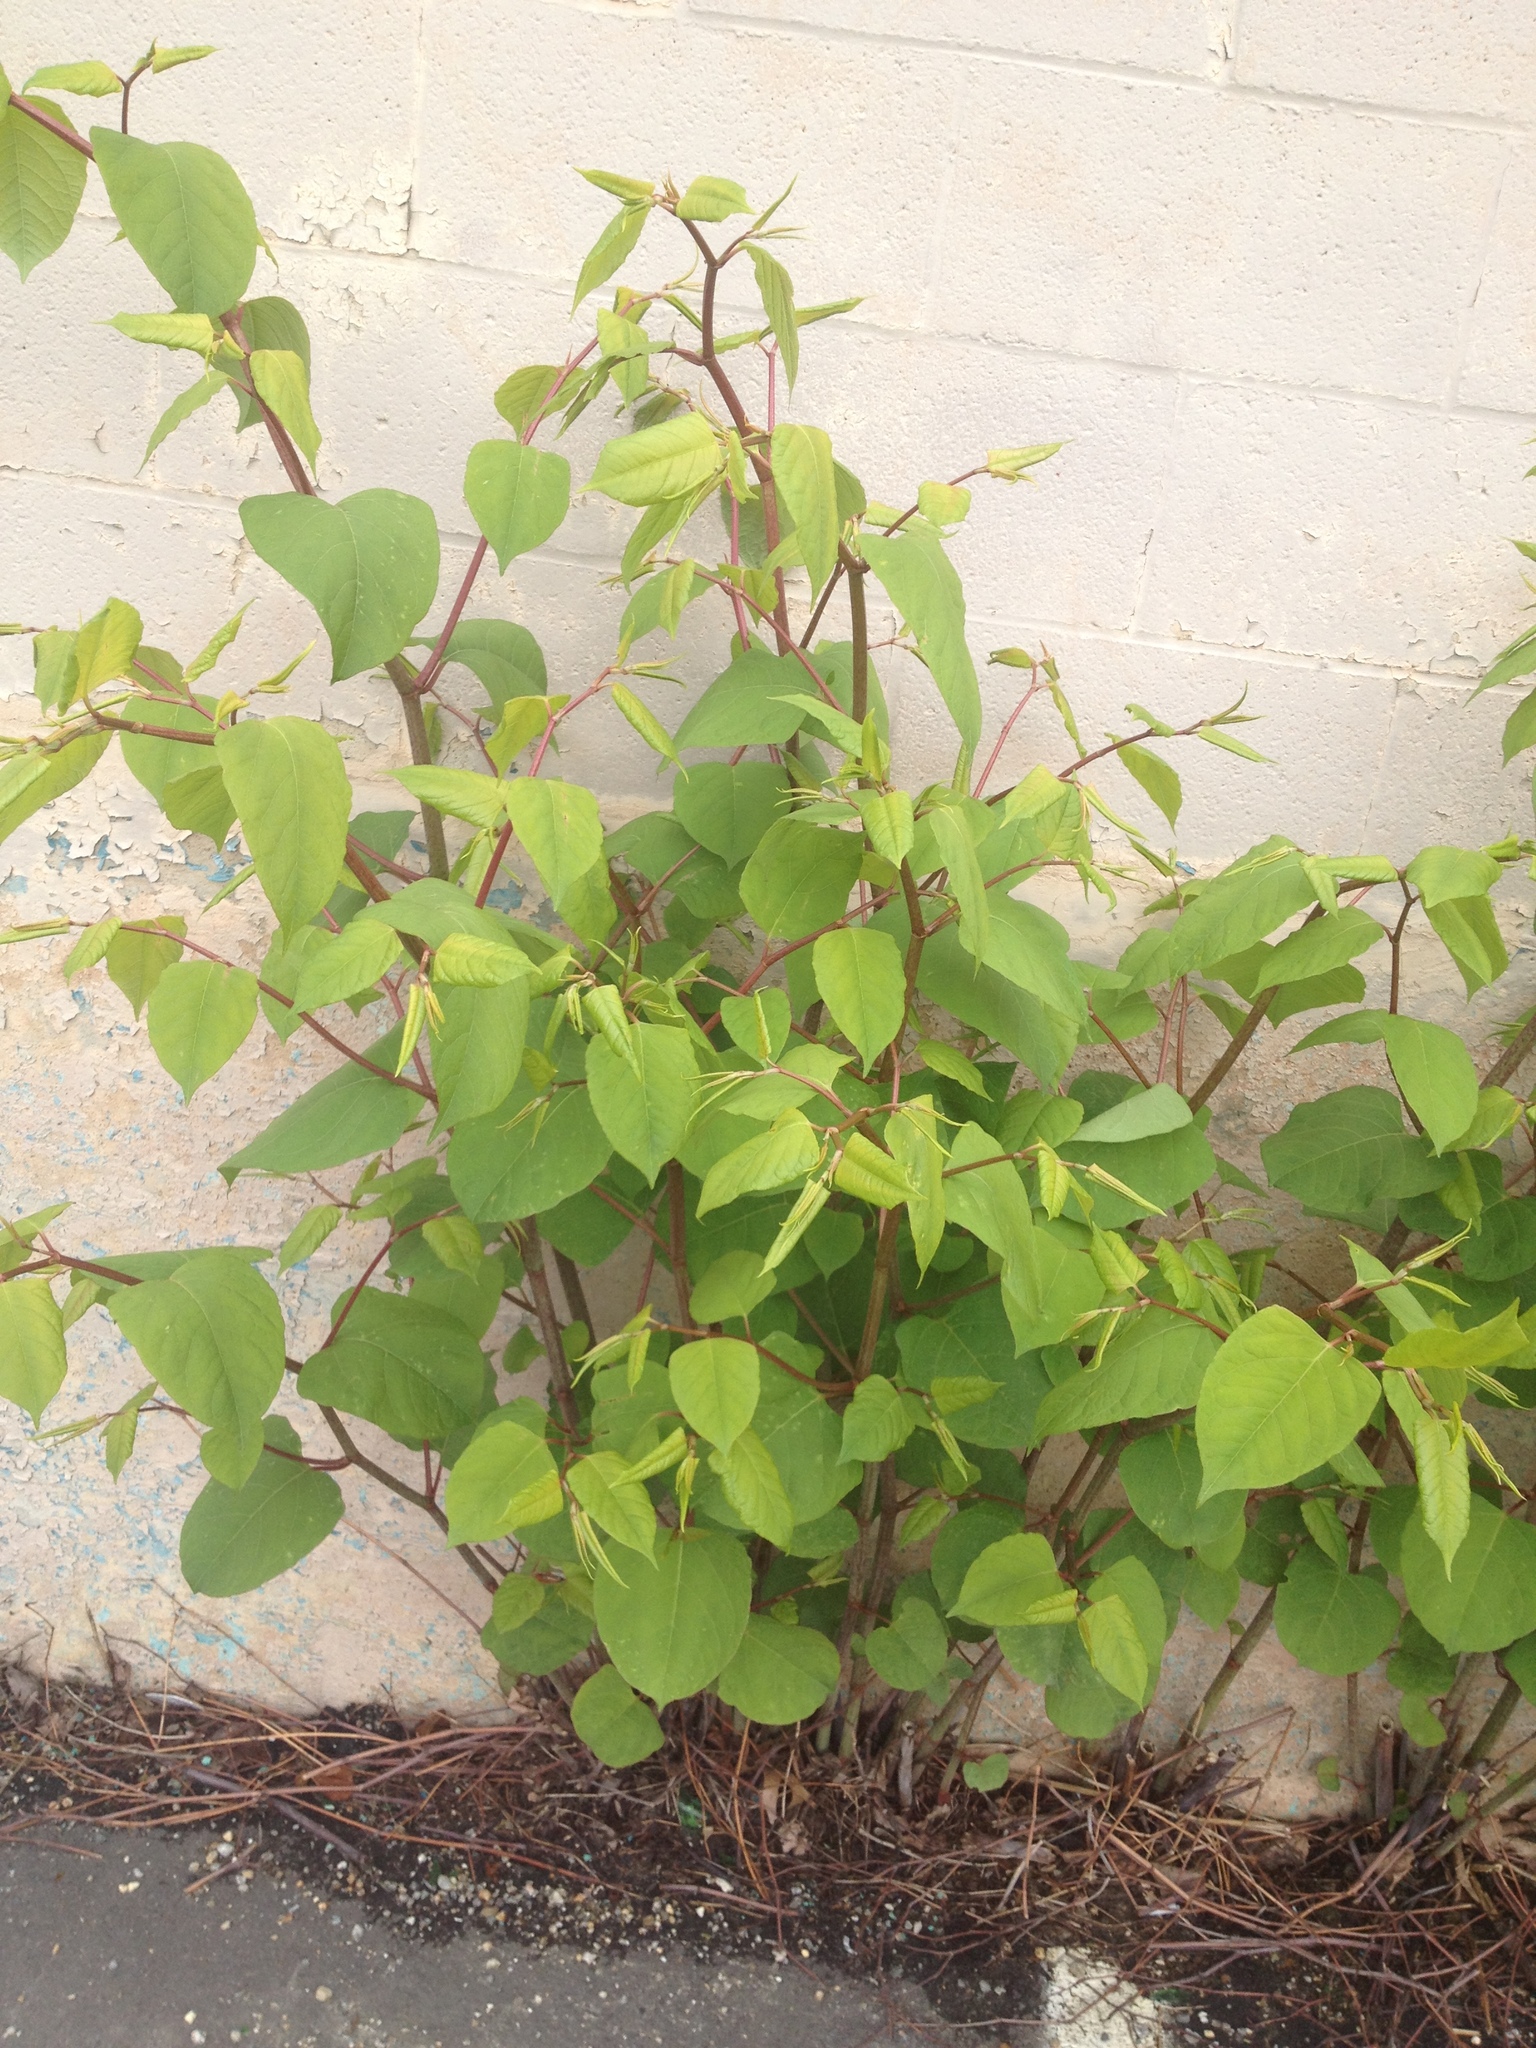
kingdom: Plantae
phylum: Tracheophyta
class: Magnoliopsida
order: Caryophyllales
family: Polygonaceae
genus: Reynoutria
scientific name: Reynoutria japonica
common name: Japanese knotweed
